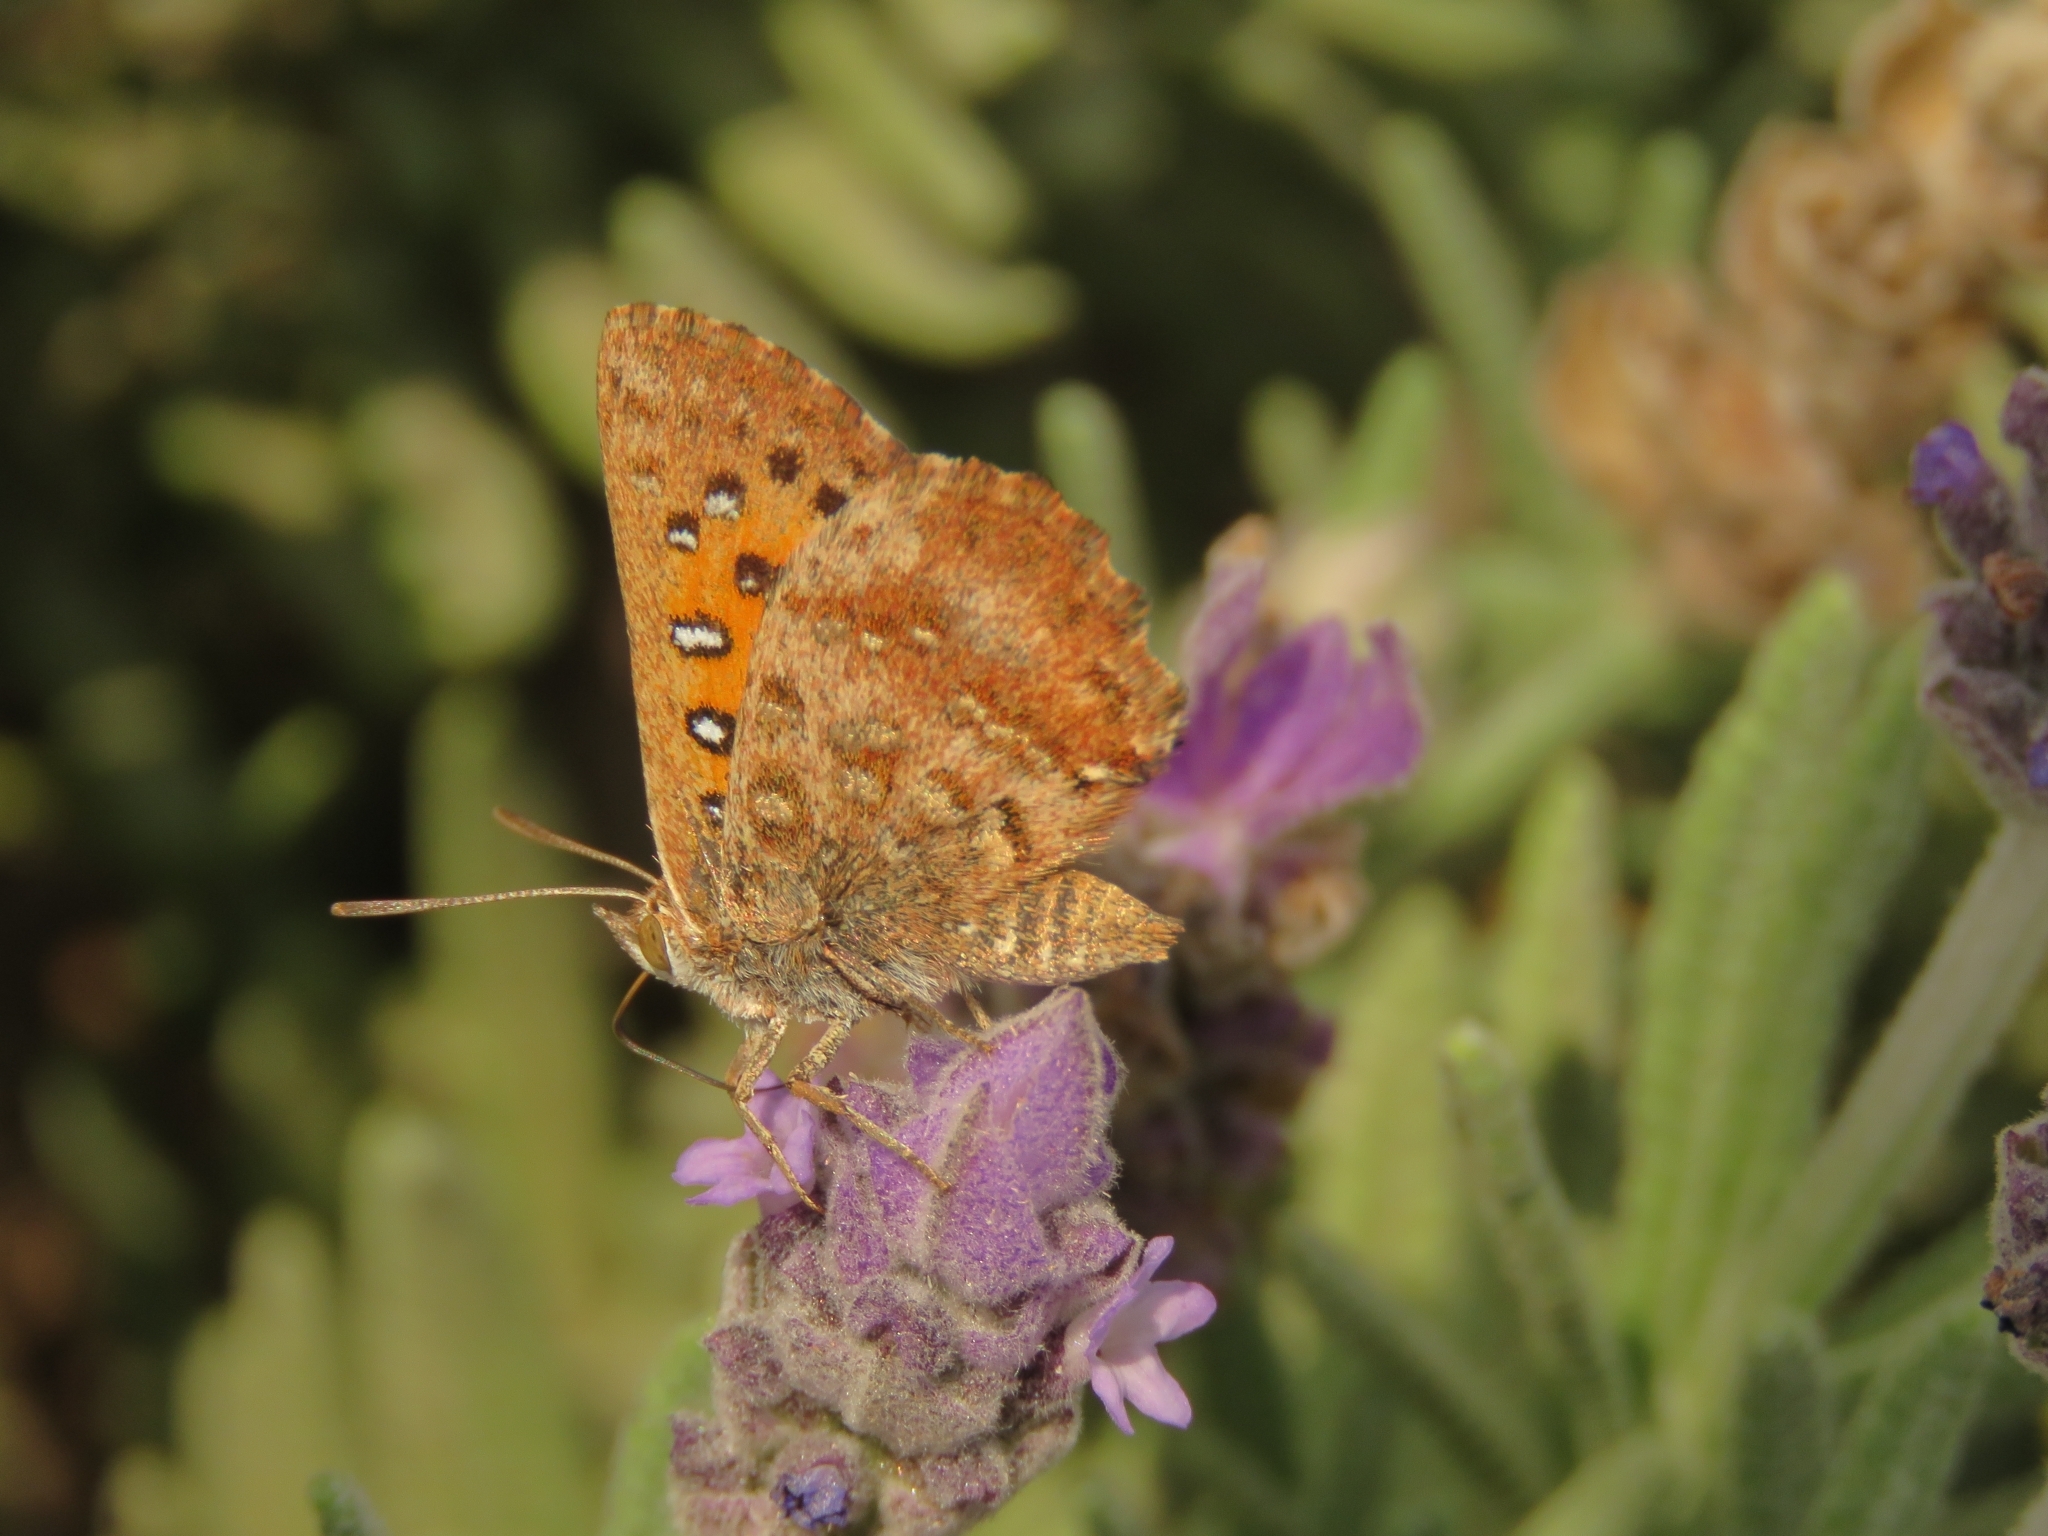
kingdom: Animalia
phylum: Arthropoda
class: Insecta
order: Lepidoptera
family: Lycaenidae
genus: Aloeides
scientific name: Aloeides pierus
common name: Dull copper
